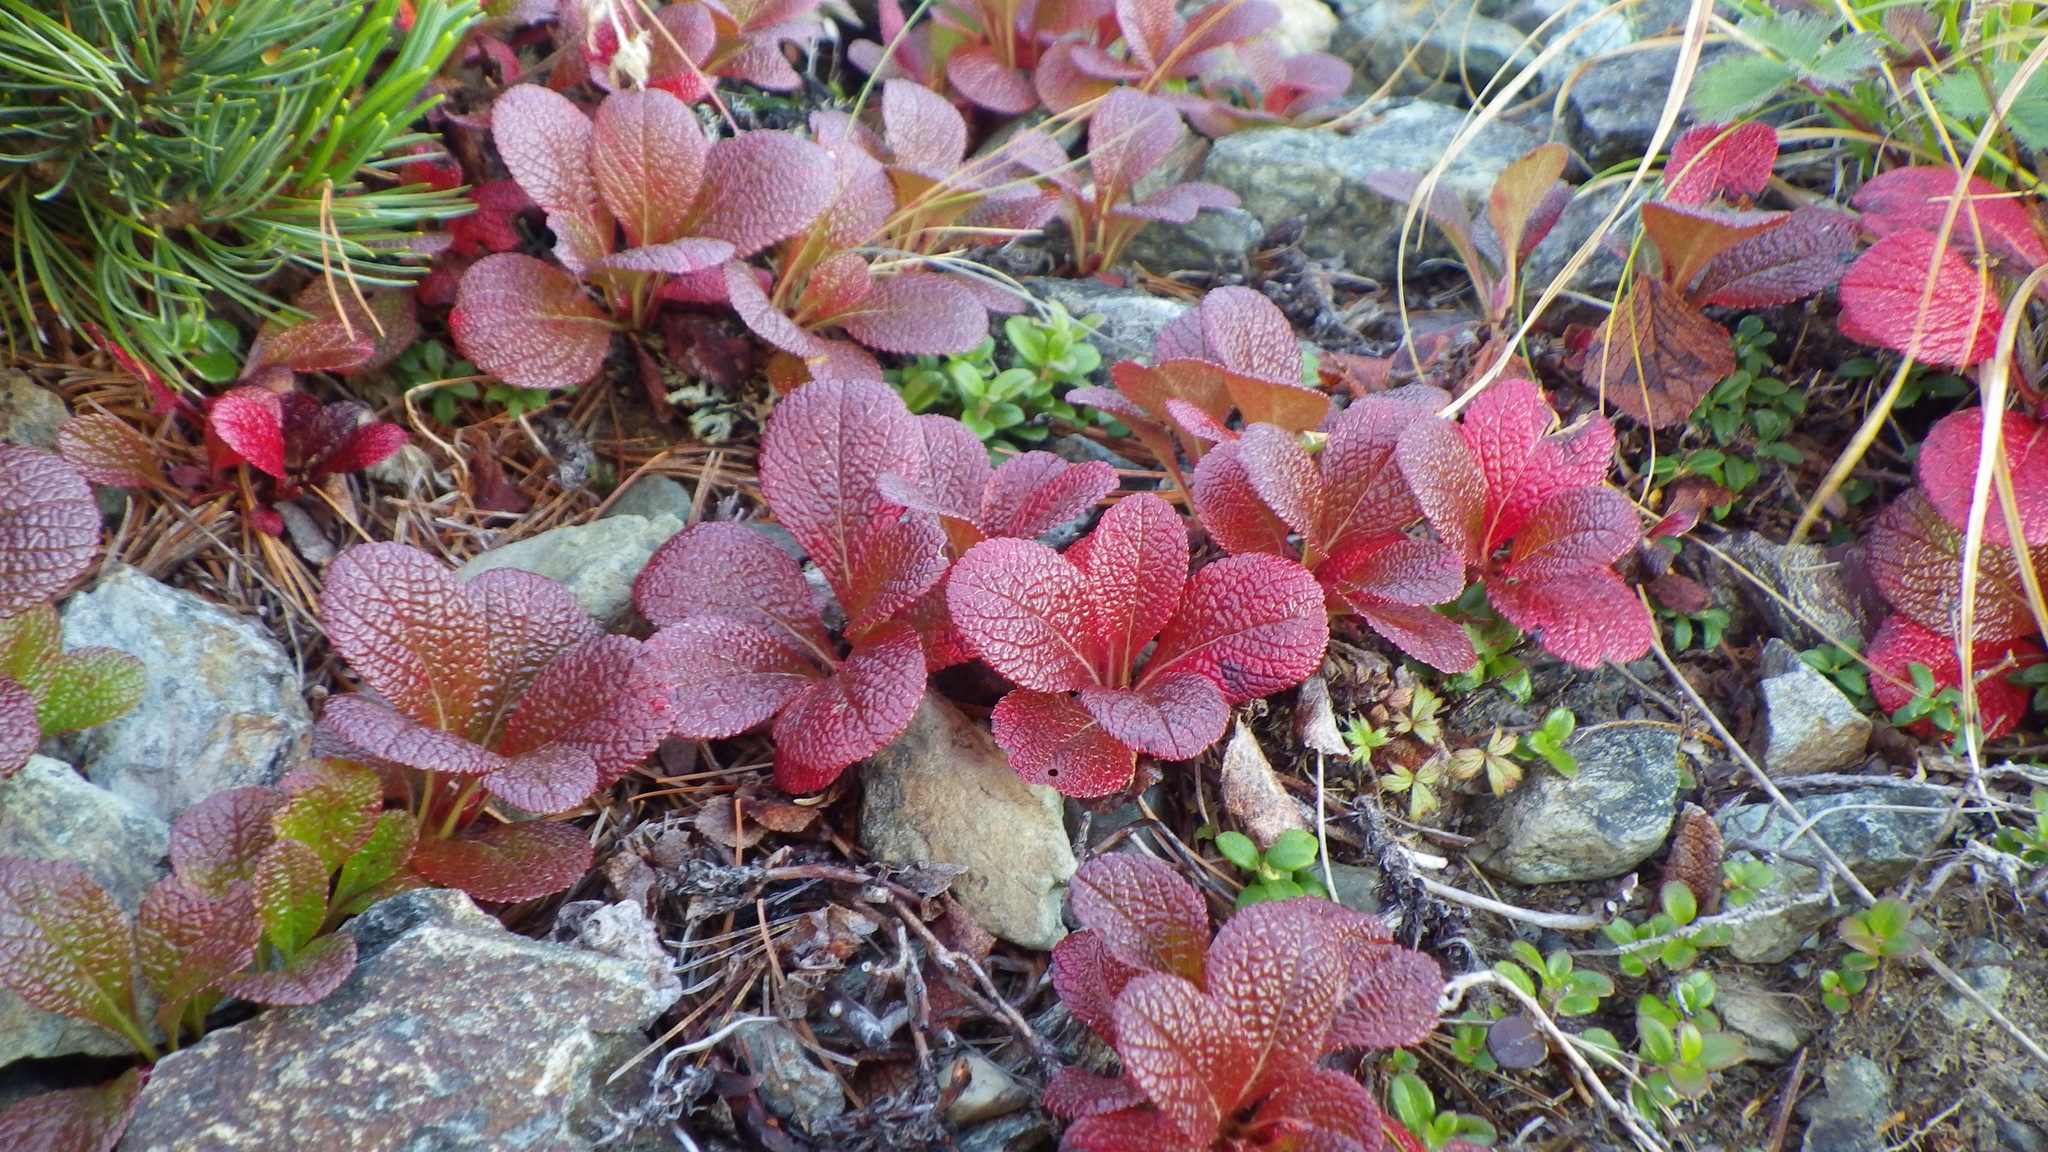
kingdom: Plantae
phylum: Tracheophyta
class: Magnoliopsida
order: Ericales
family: Ericaceae
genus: Arctostaphylos
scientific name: Arctostaphylos alpinus
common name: Alpine bearberry
